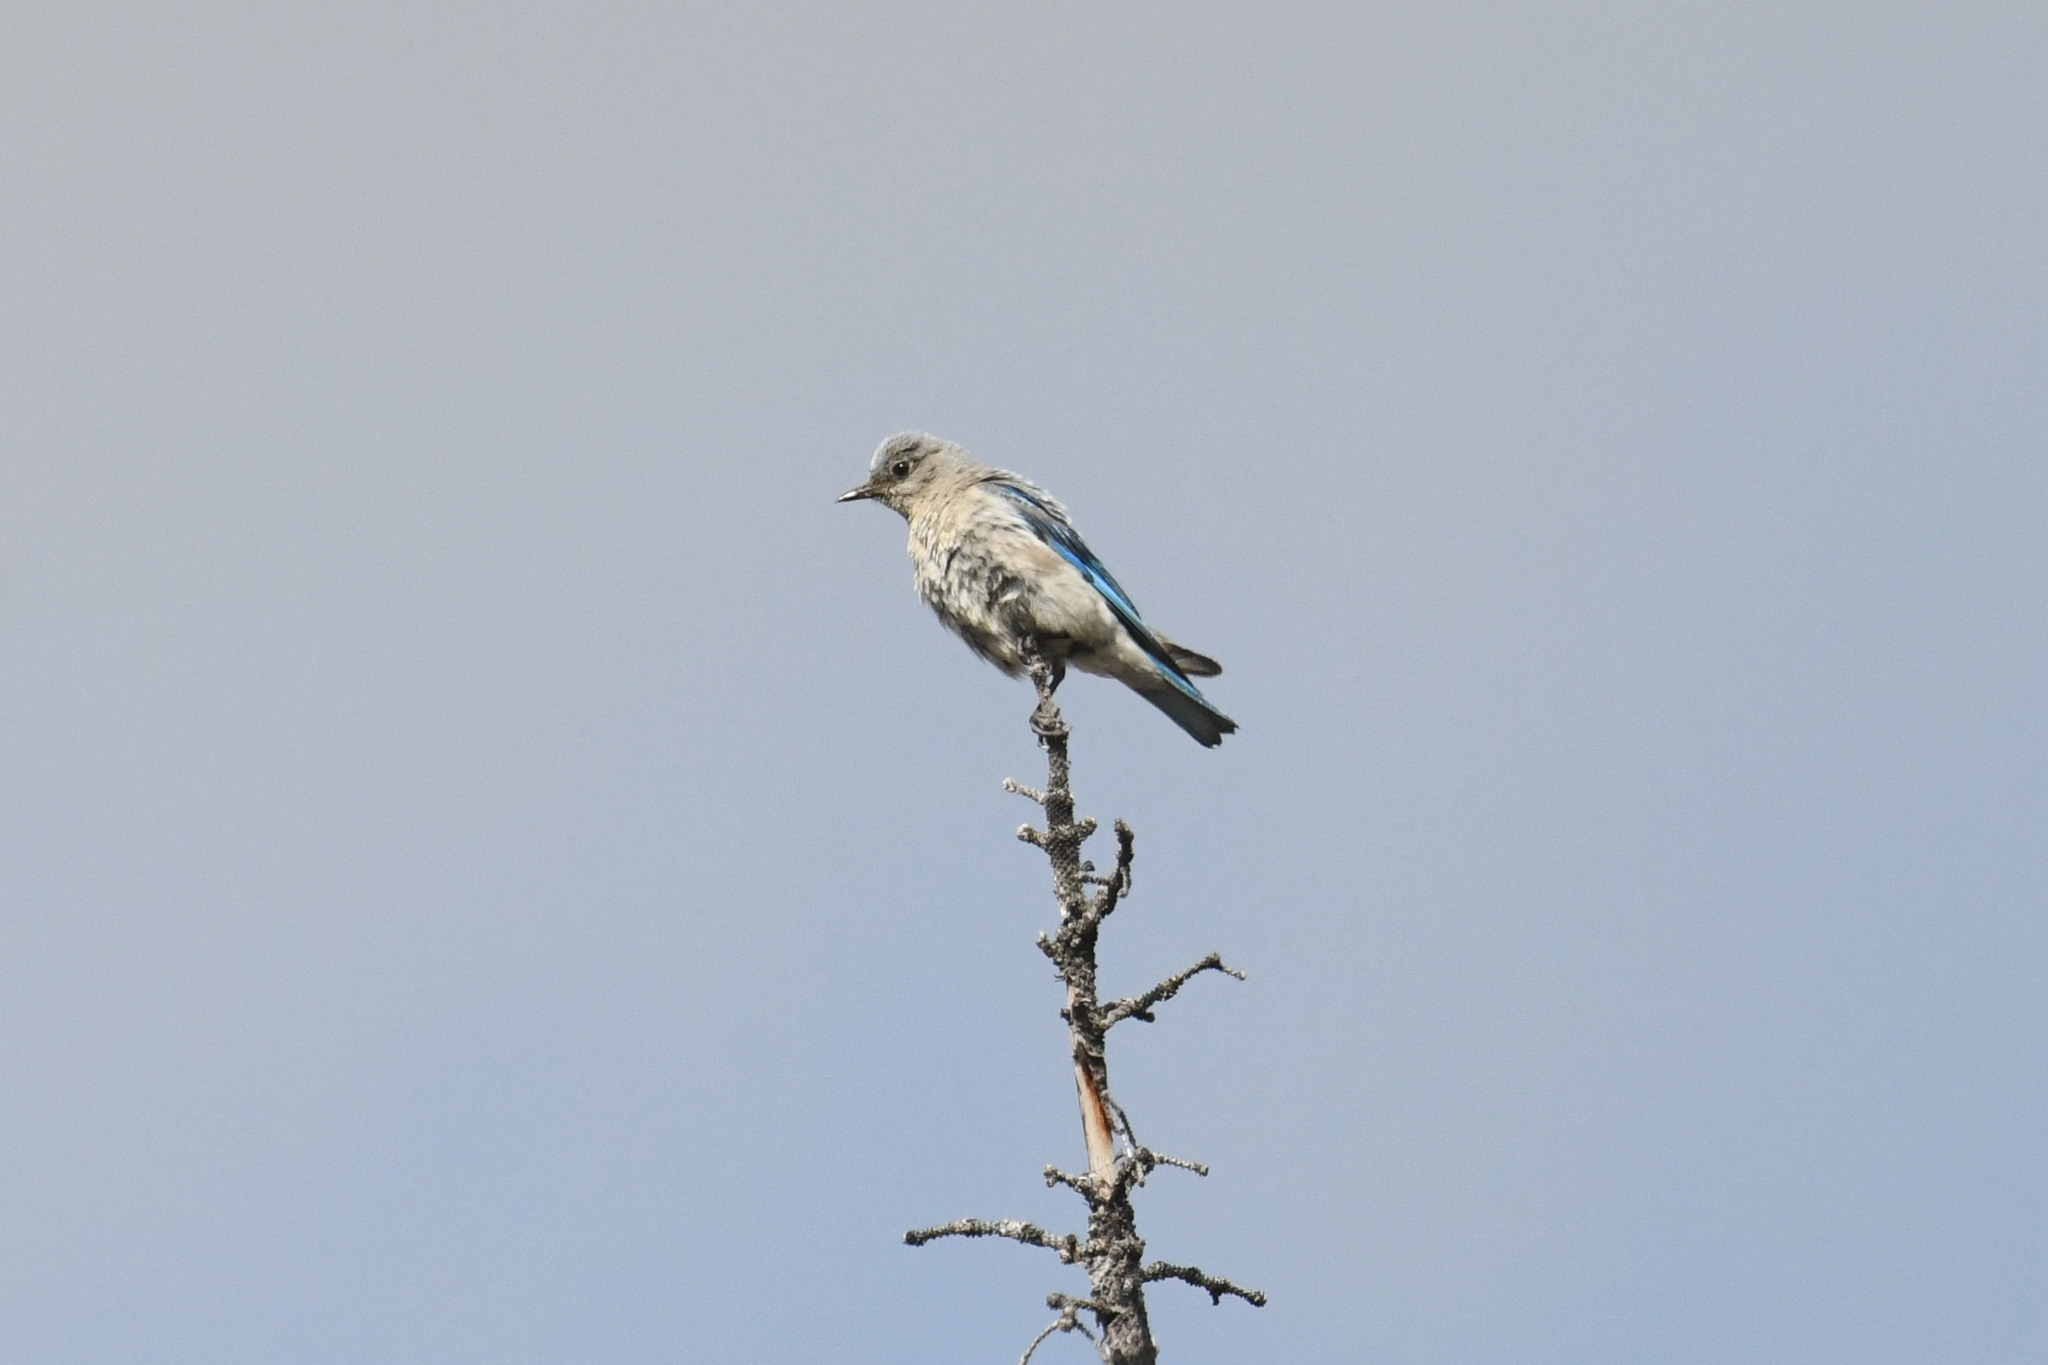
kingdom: Animalia
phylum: Chordata
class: Aves
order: Passeriformes
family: Turdidae
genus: Sialia
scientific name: Sialia currucoides
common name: Mountain bluebird
